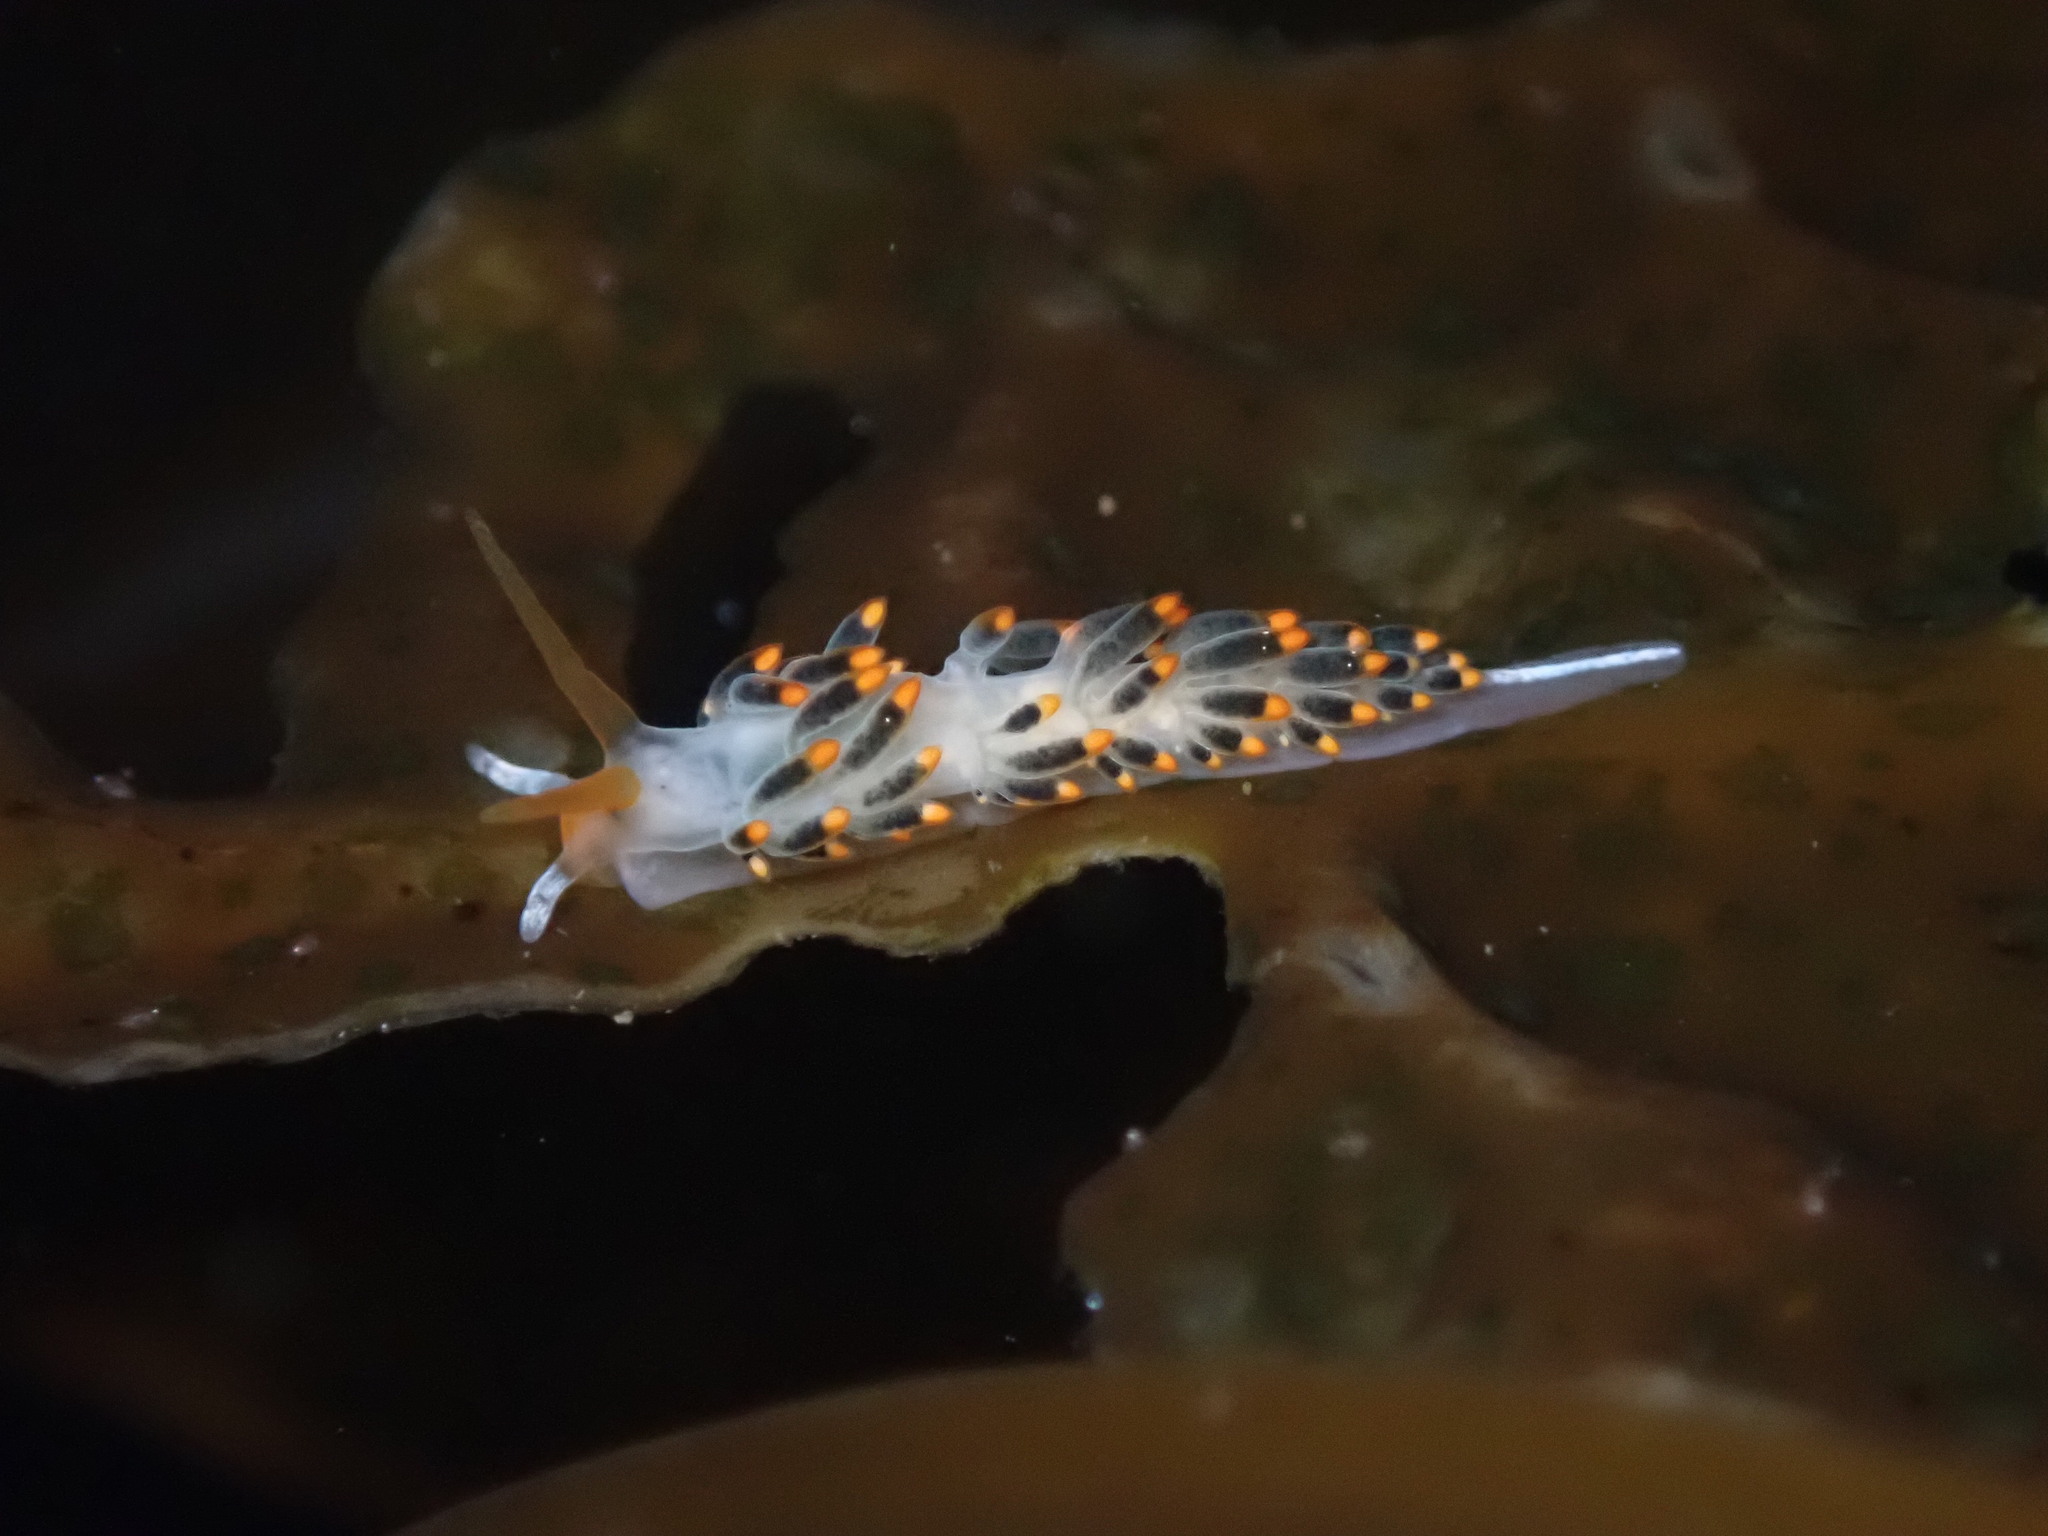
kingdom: Animalia
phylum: Mollusca
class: Gastropoda
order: Nudibranchia
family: Trinchesiidae
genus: Diaphoreolis
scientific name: Diaphoreolis lagunae
